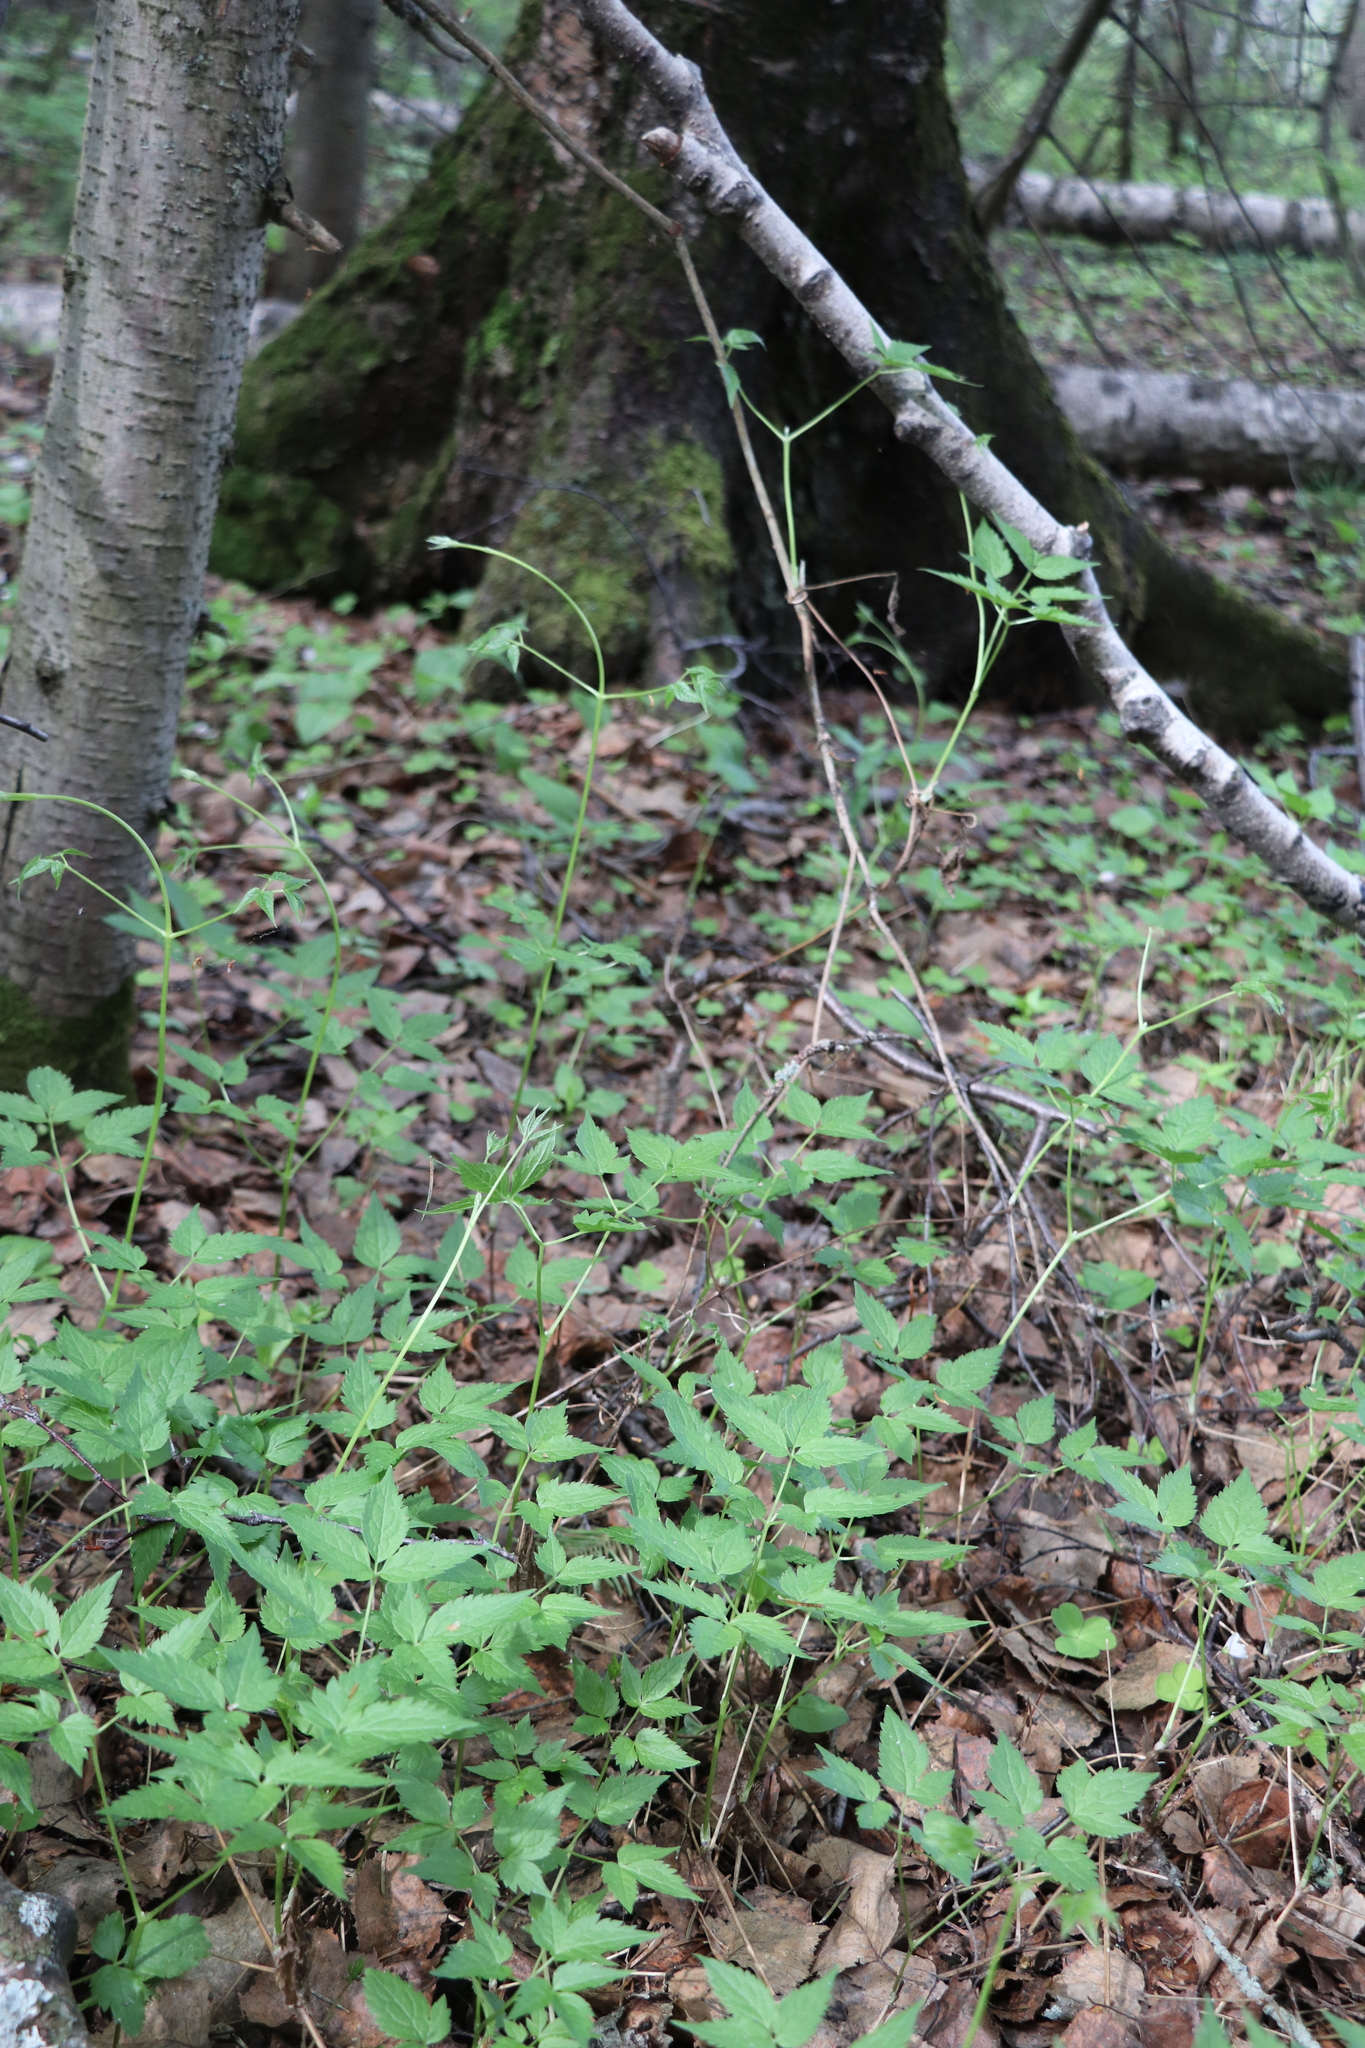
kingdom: Plantae
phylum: Tracheophyta
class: Magnoliopsida
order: Ranunculales
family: Ranunculaceae
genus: Clematis
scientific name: Clematis sibirica
